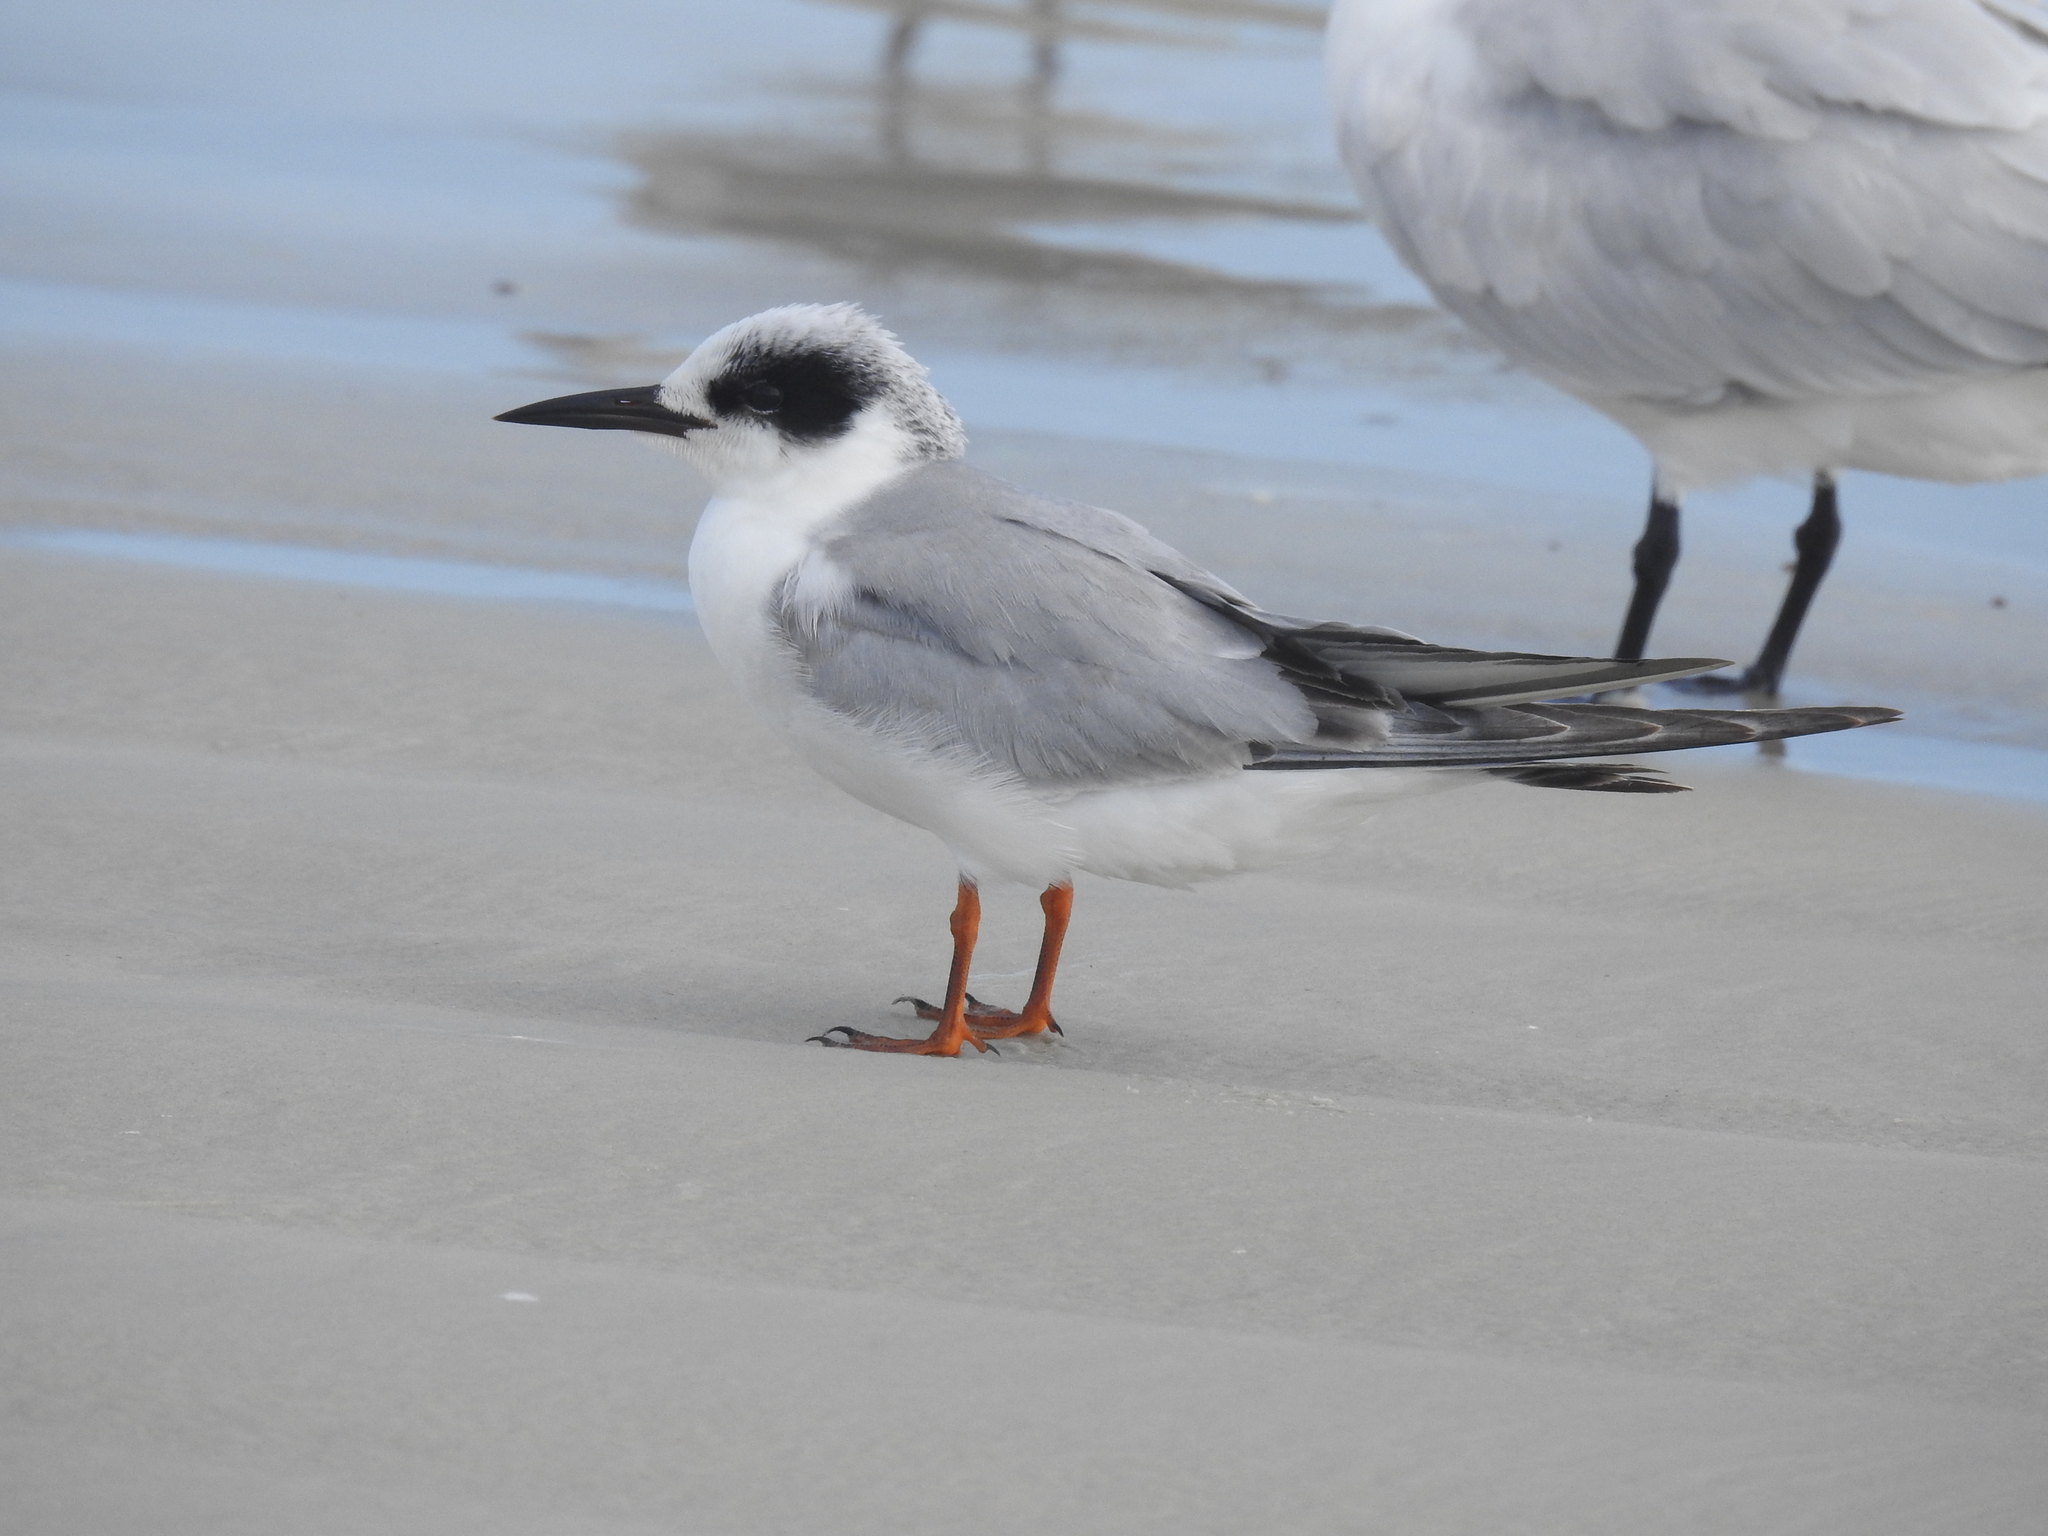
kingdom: Animalia
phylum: Chordata
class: Aves
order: Charadriiformes
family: Laridae
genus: Sterna
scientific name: Sterna forsteri
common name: Forster's tern
